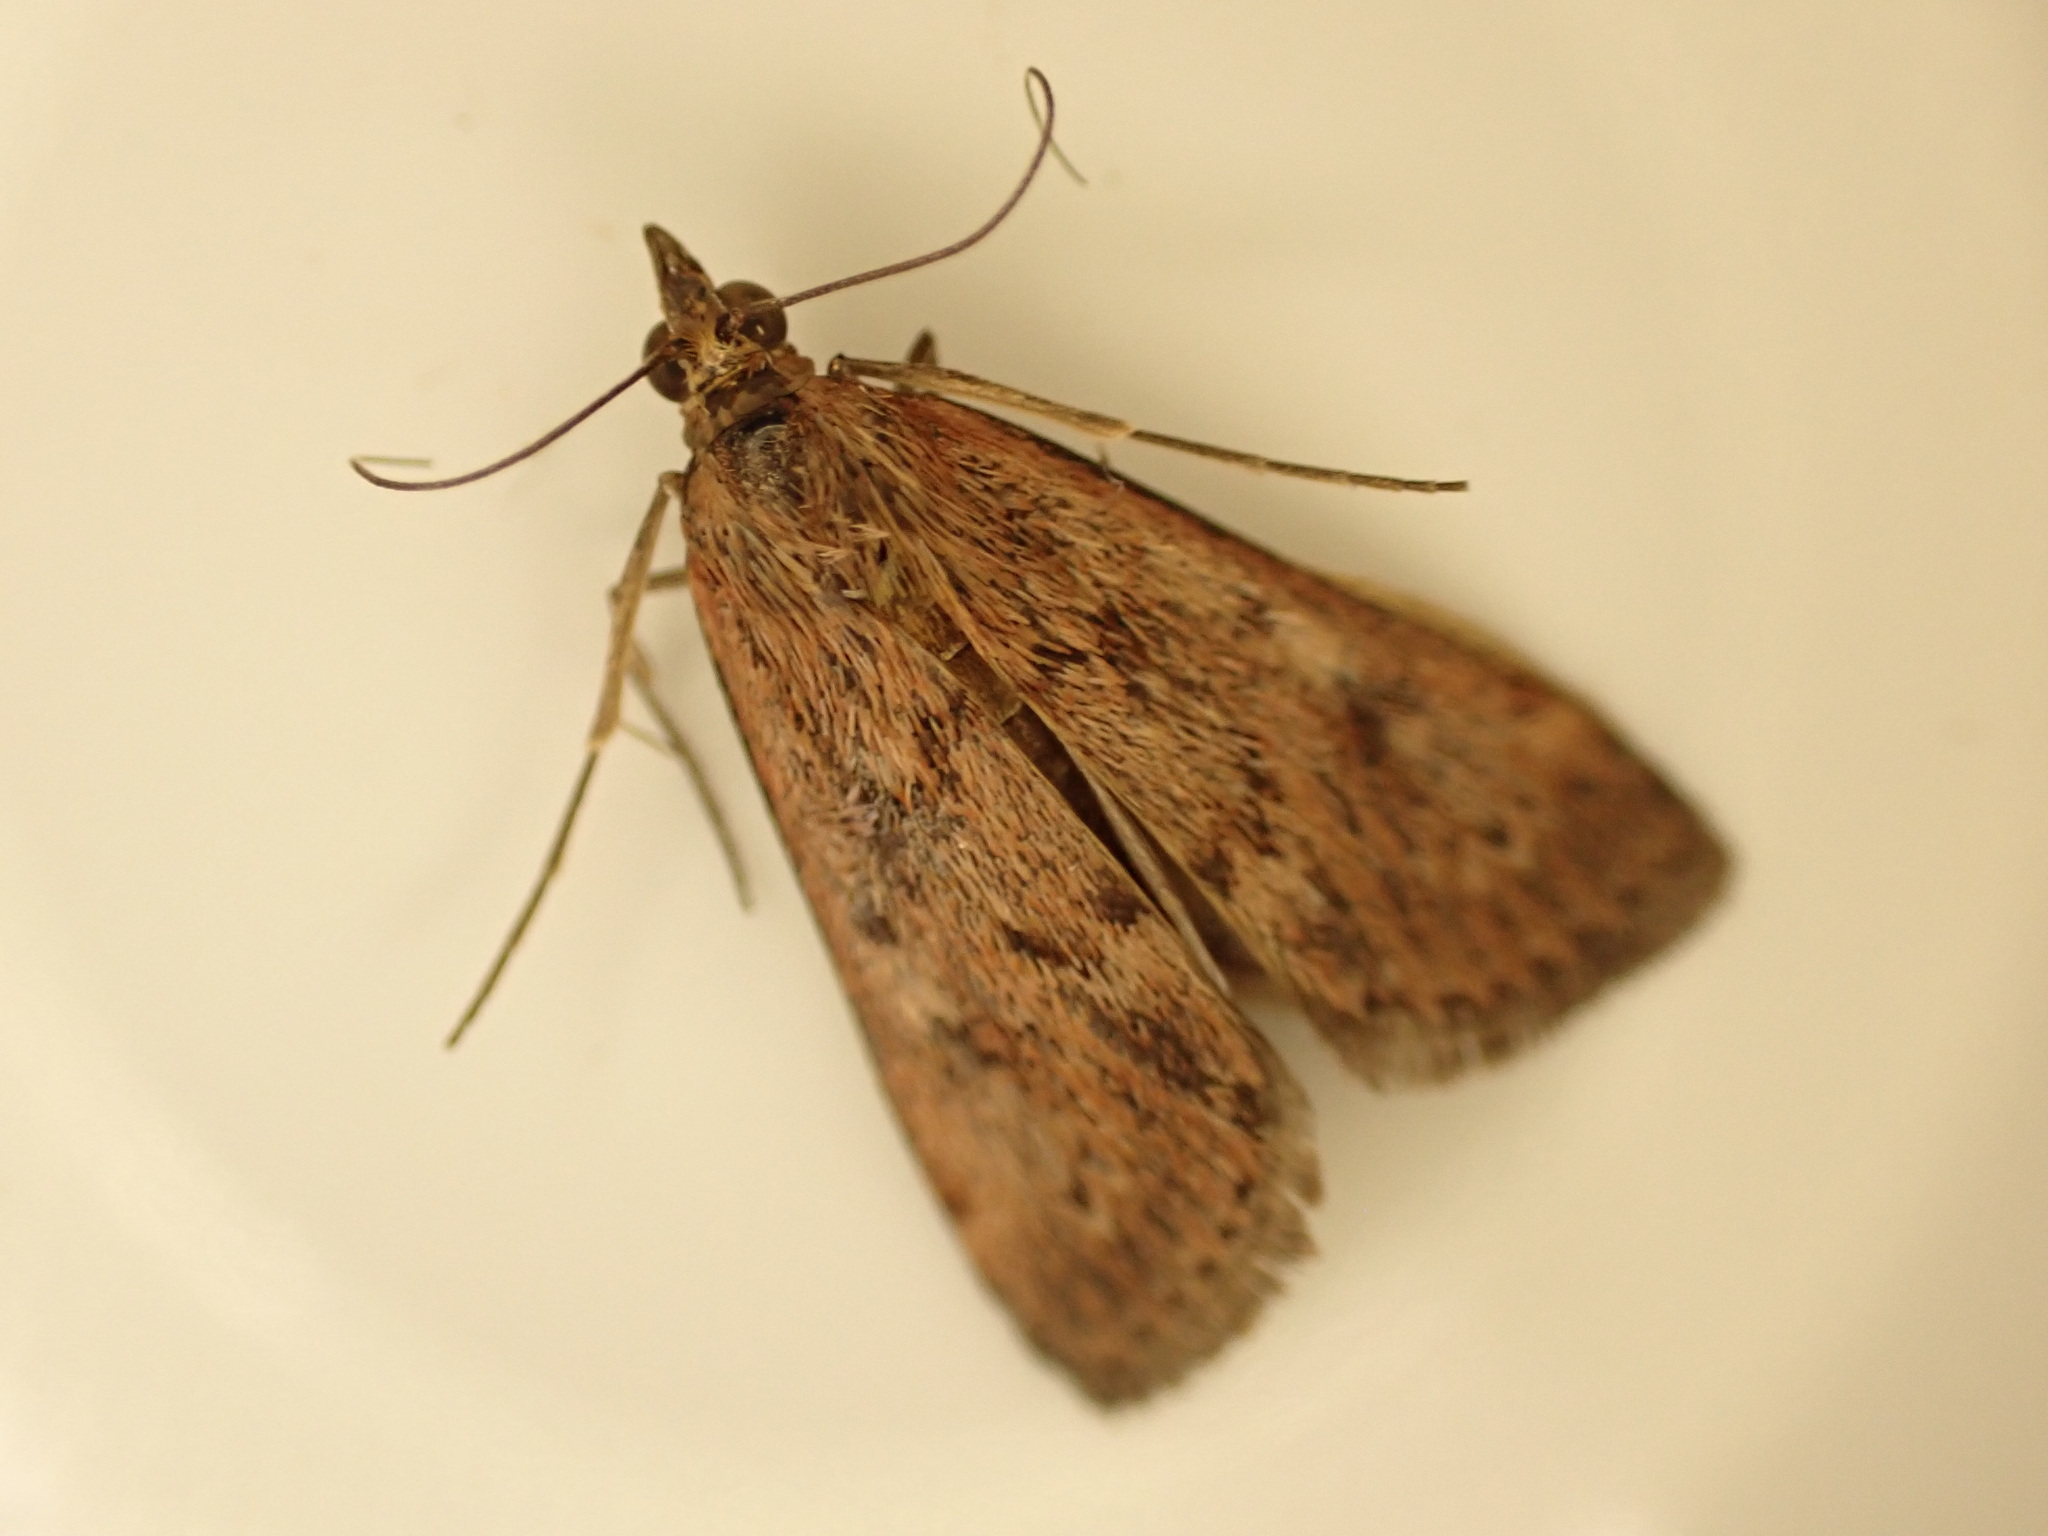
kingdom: Animalia
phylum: Arthropoda
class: Insecta
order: Lepidoptera
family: Crambidae
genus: Achyra
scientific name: Achyra affinitalis
